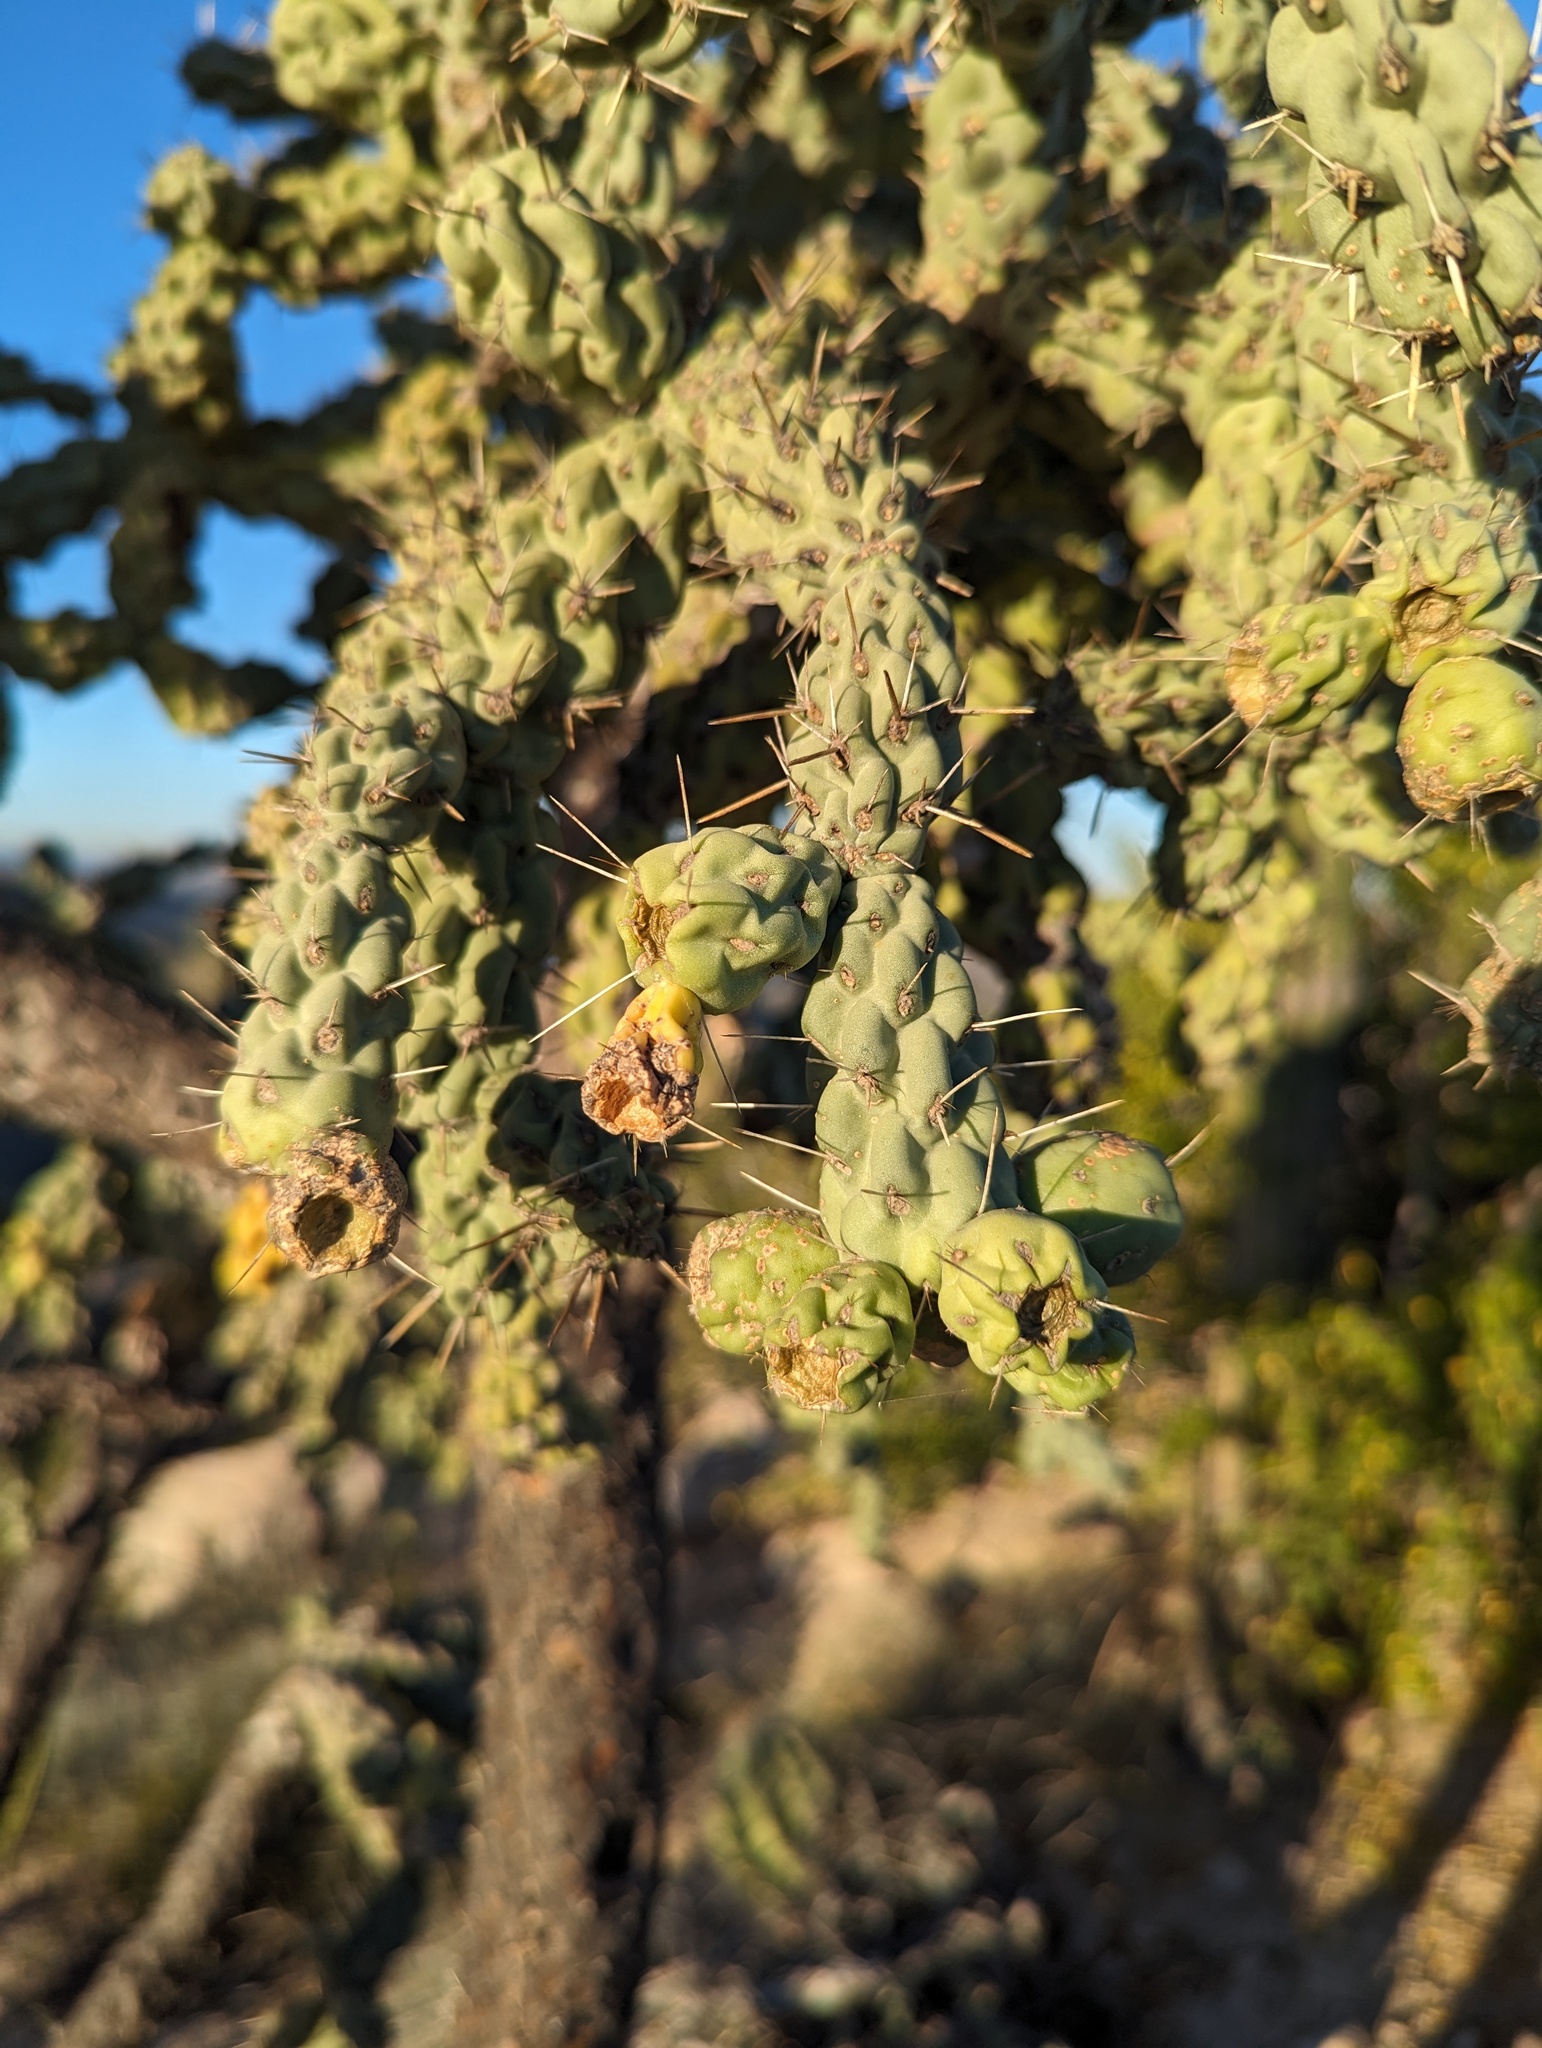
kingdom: Plantae
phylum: Tracheophyta
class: Magnoliopsida
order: Caryophyllales
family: Cactaceae
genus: Cylindropuntia
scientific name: Cylindropuntia cholla
